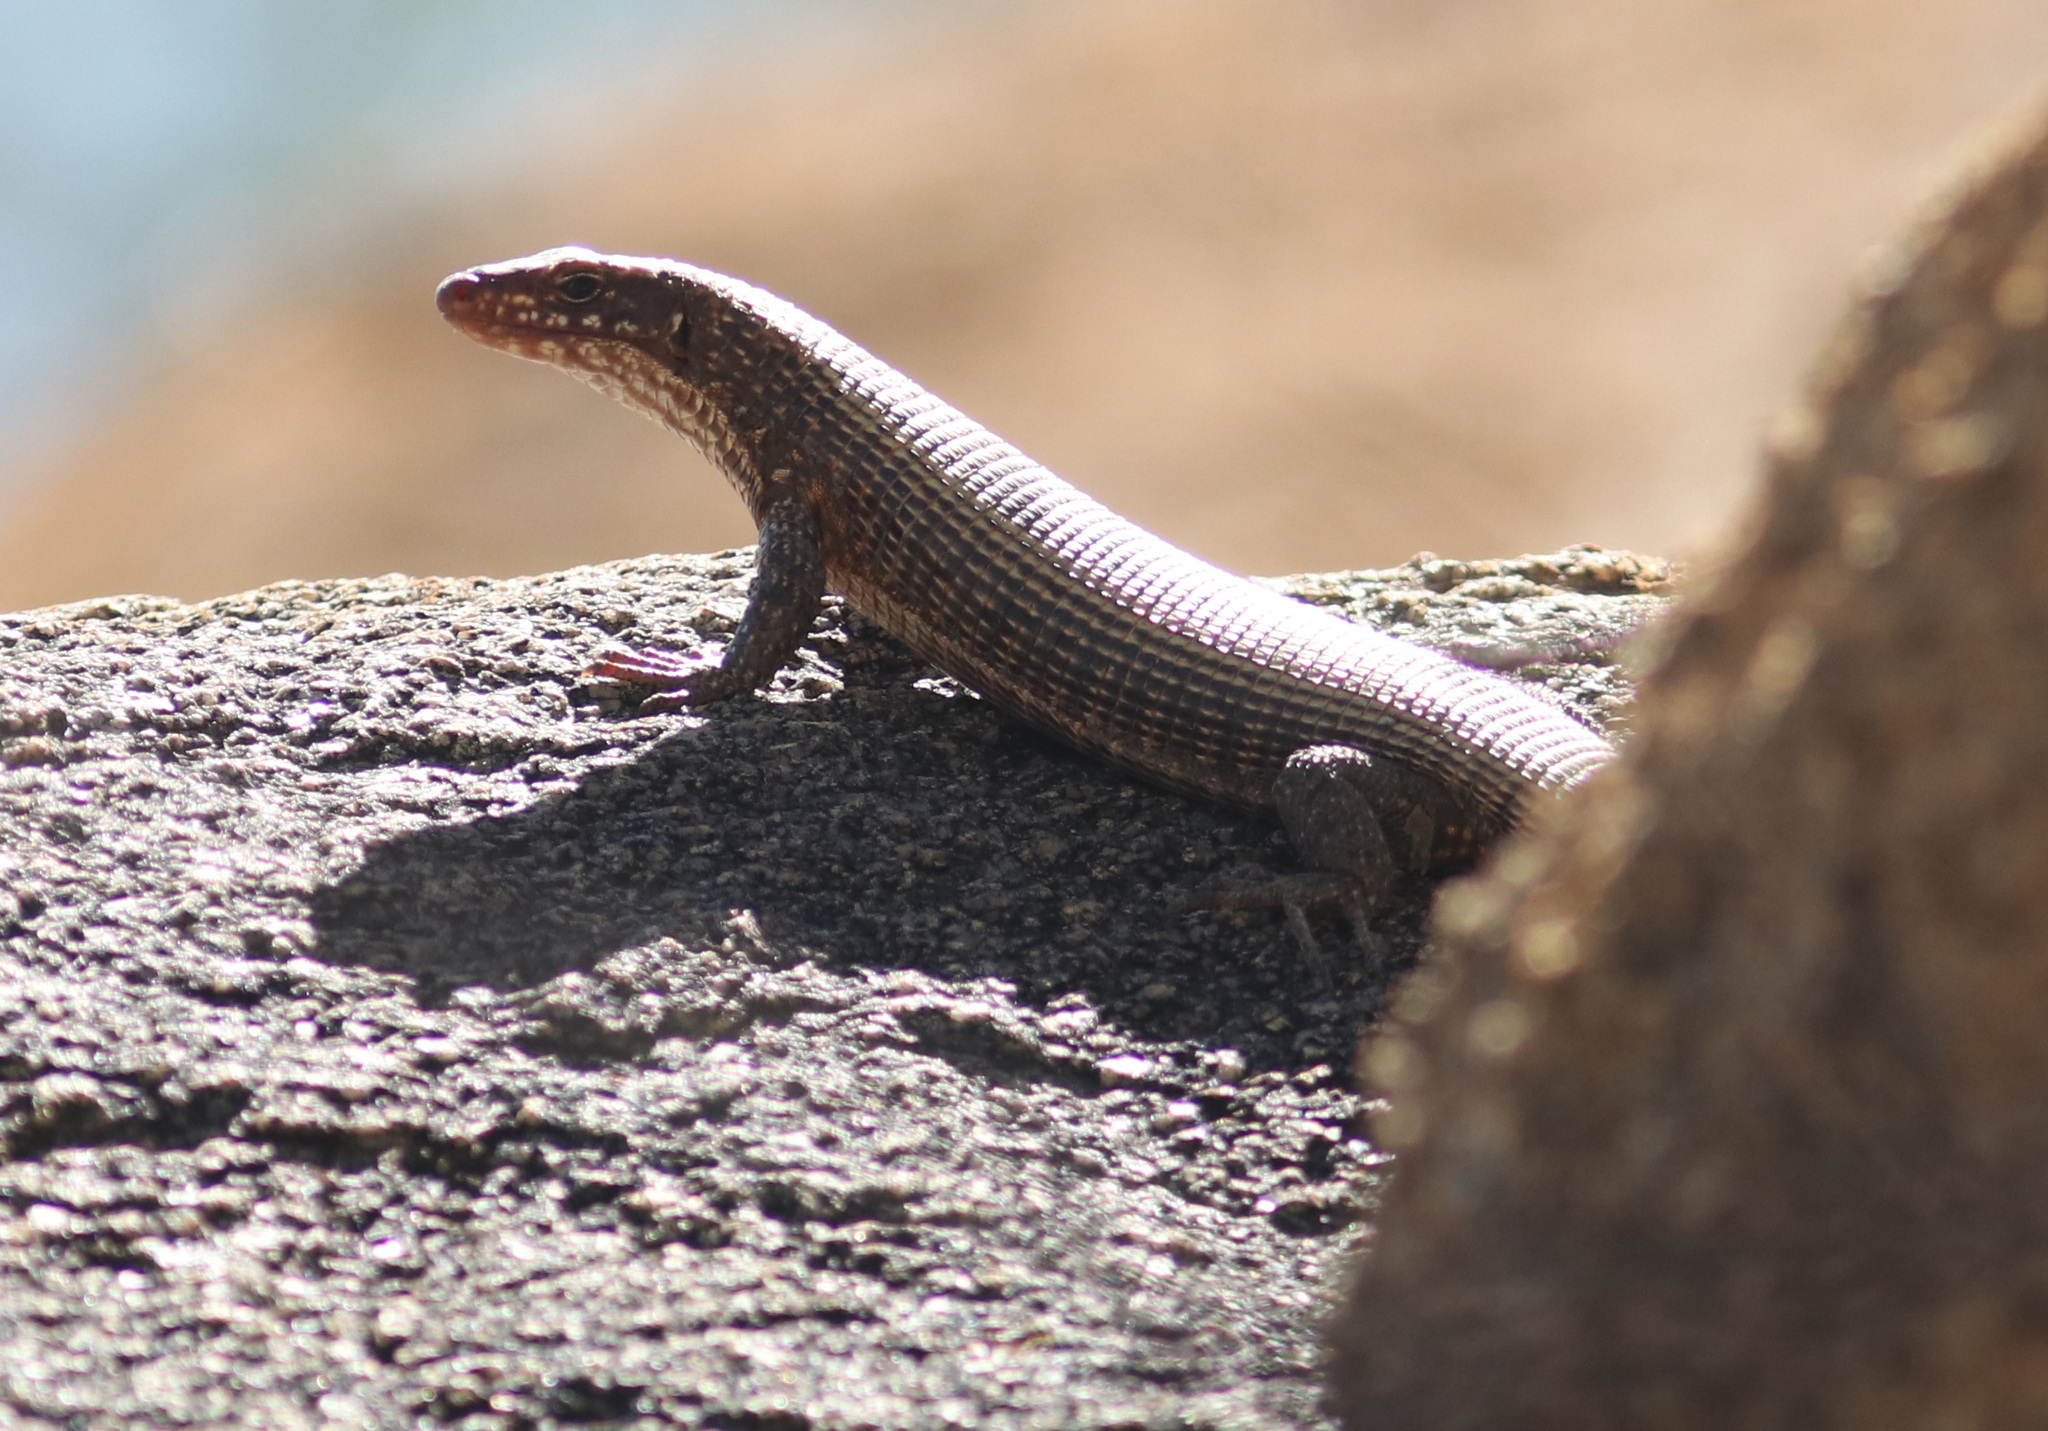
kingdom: Animalia
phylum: Chordata
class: Squamata
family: Gerrhosauridae
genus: Matobosaurus
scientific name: Matobosaurus maltzahni
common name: Western giant plated lizard
